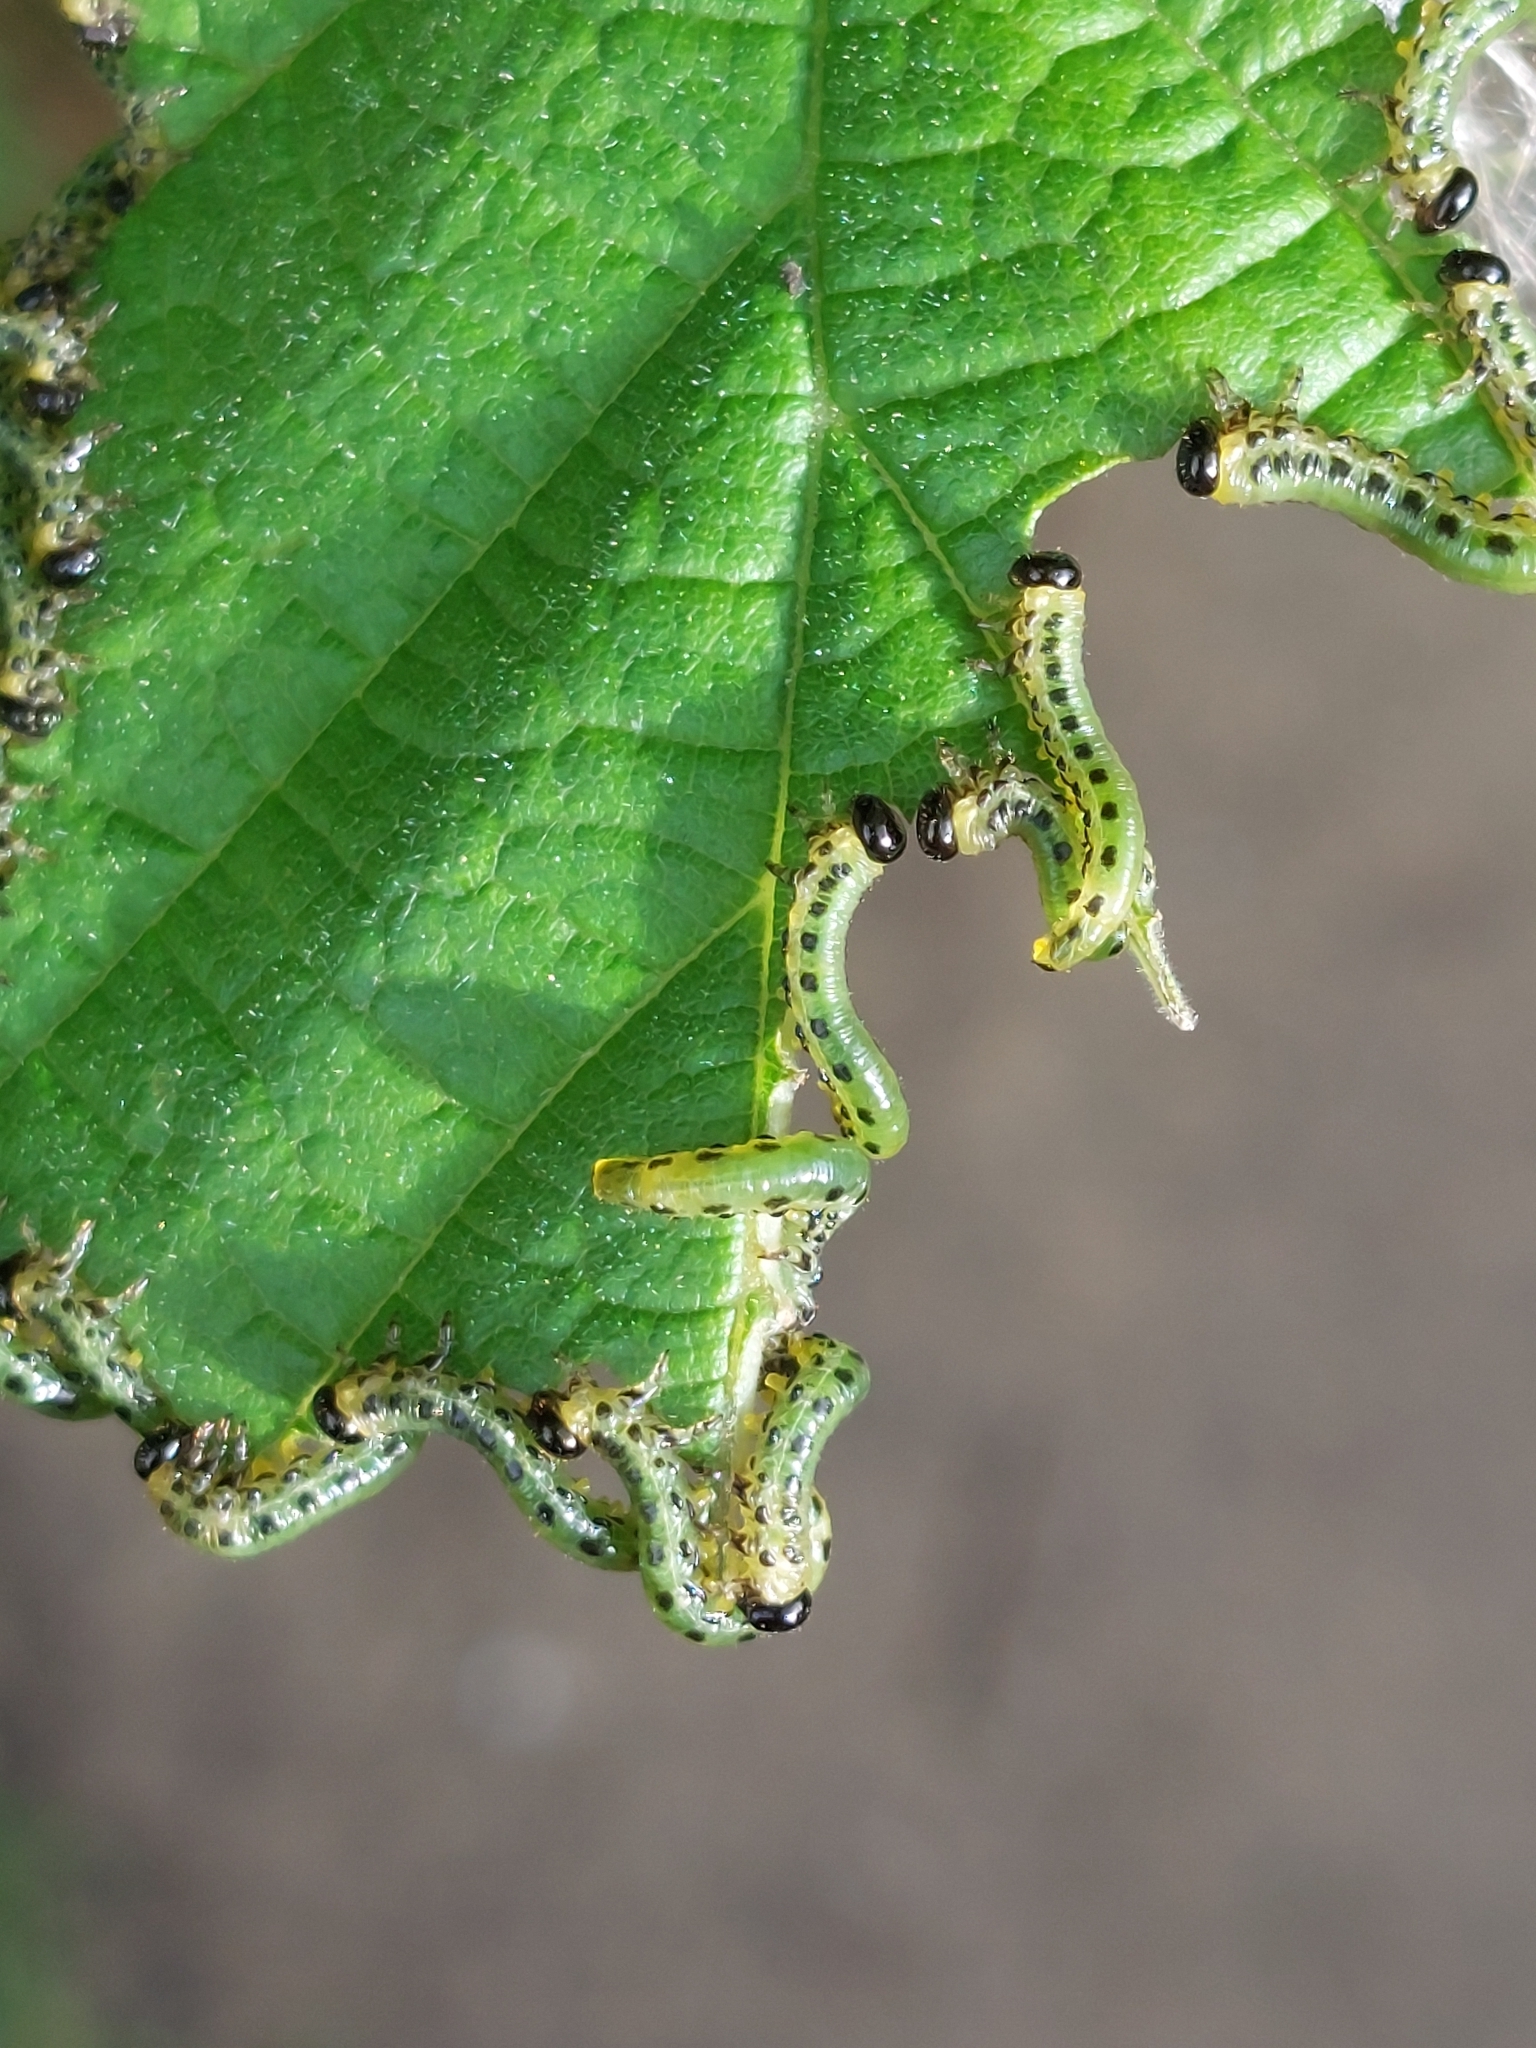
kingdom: Animalia
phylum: Arthropoda
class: Insecta
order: Hymenoptera
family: Tenthredinidae
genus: Craesus
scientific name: Craesus septentrionalis
